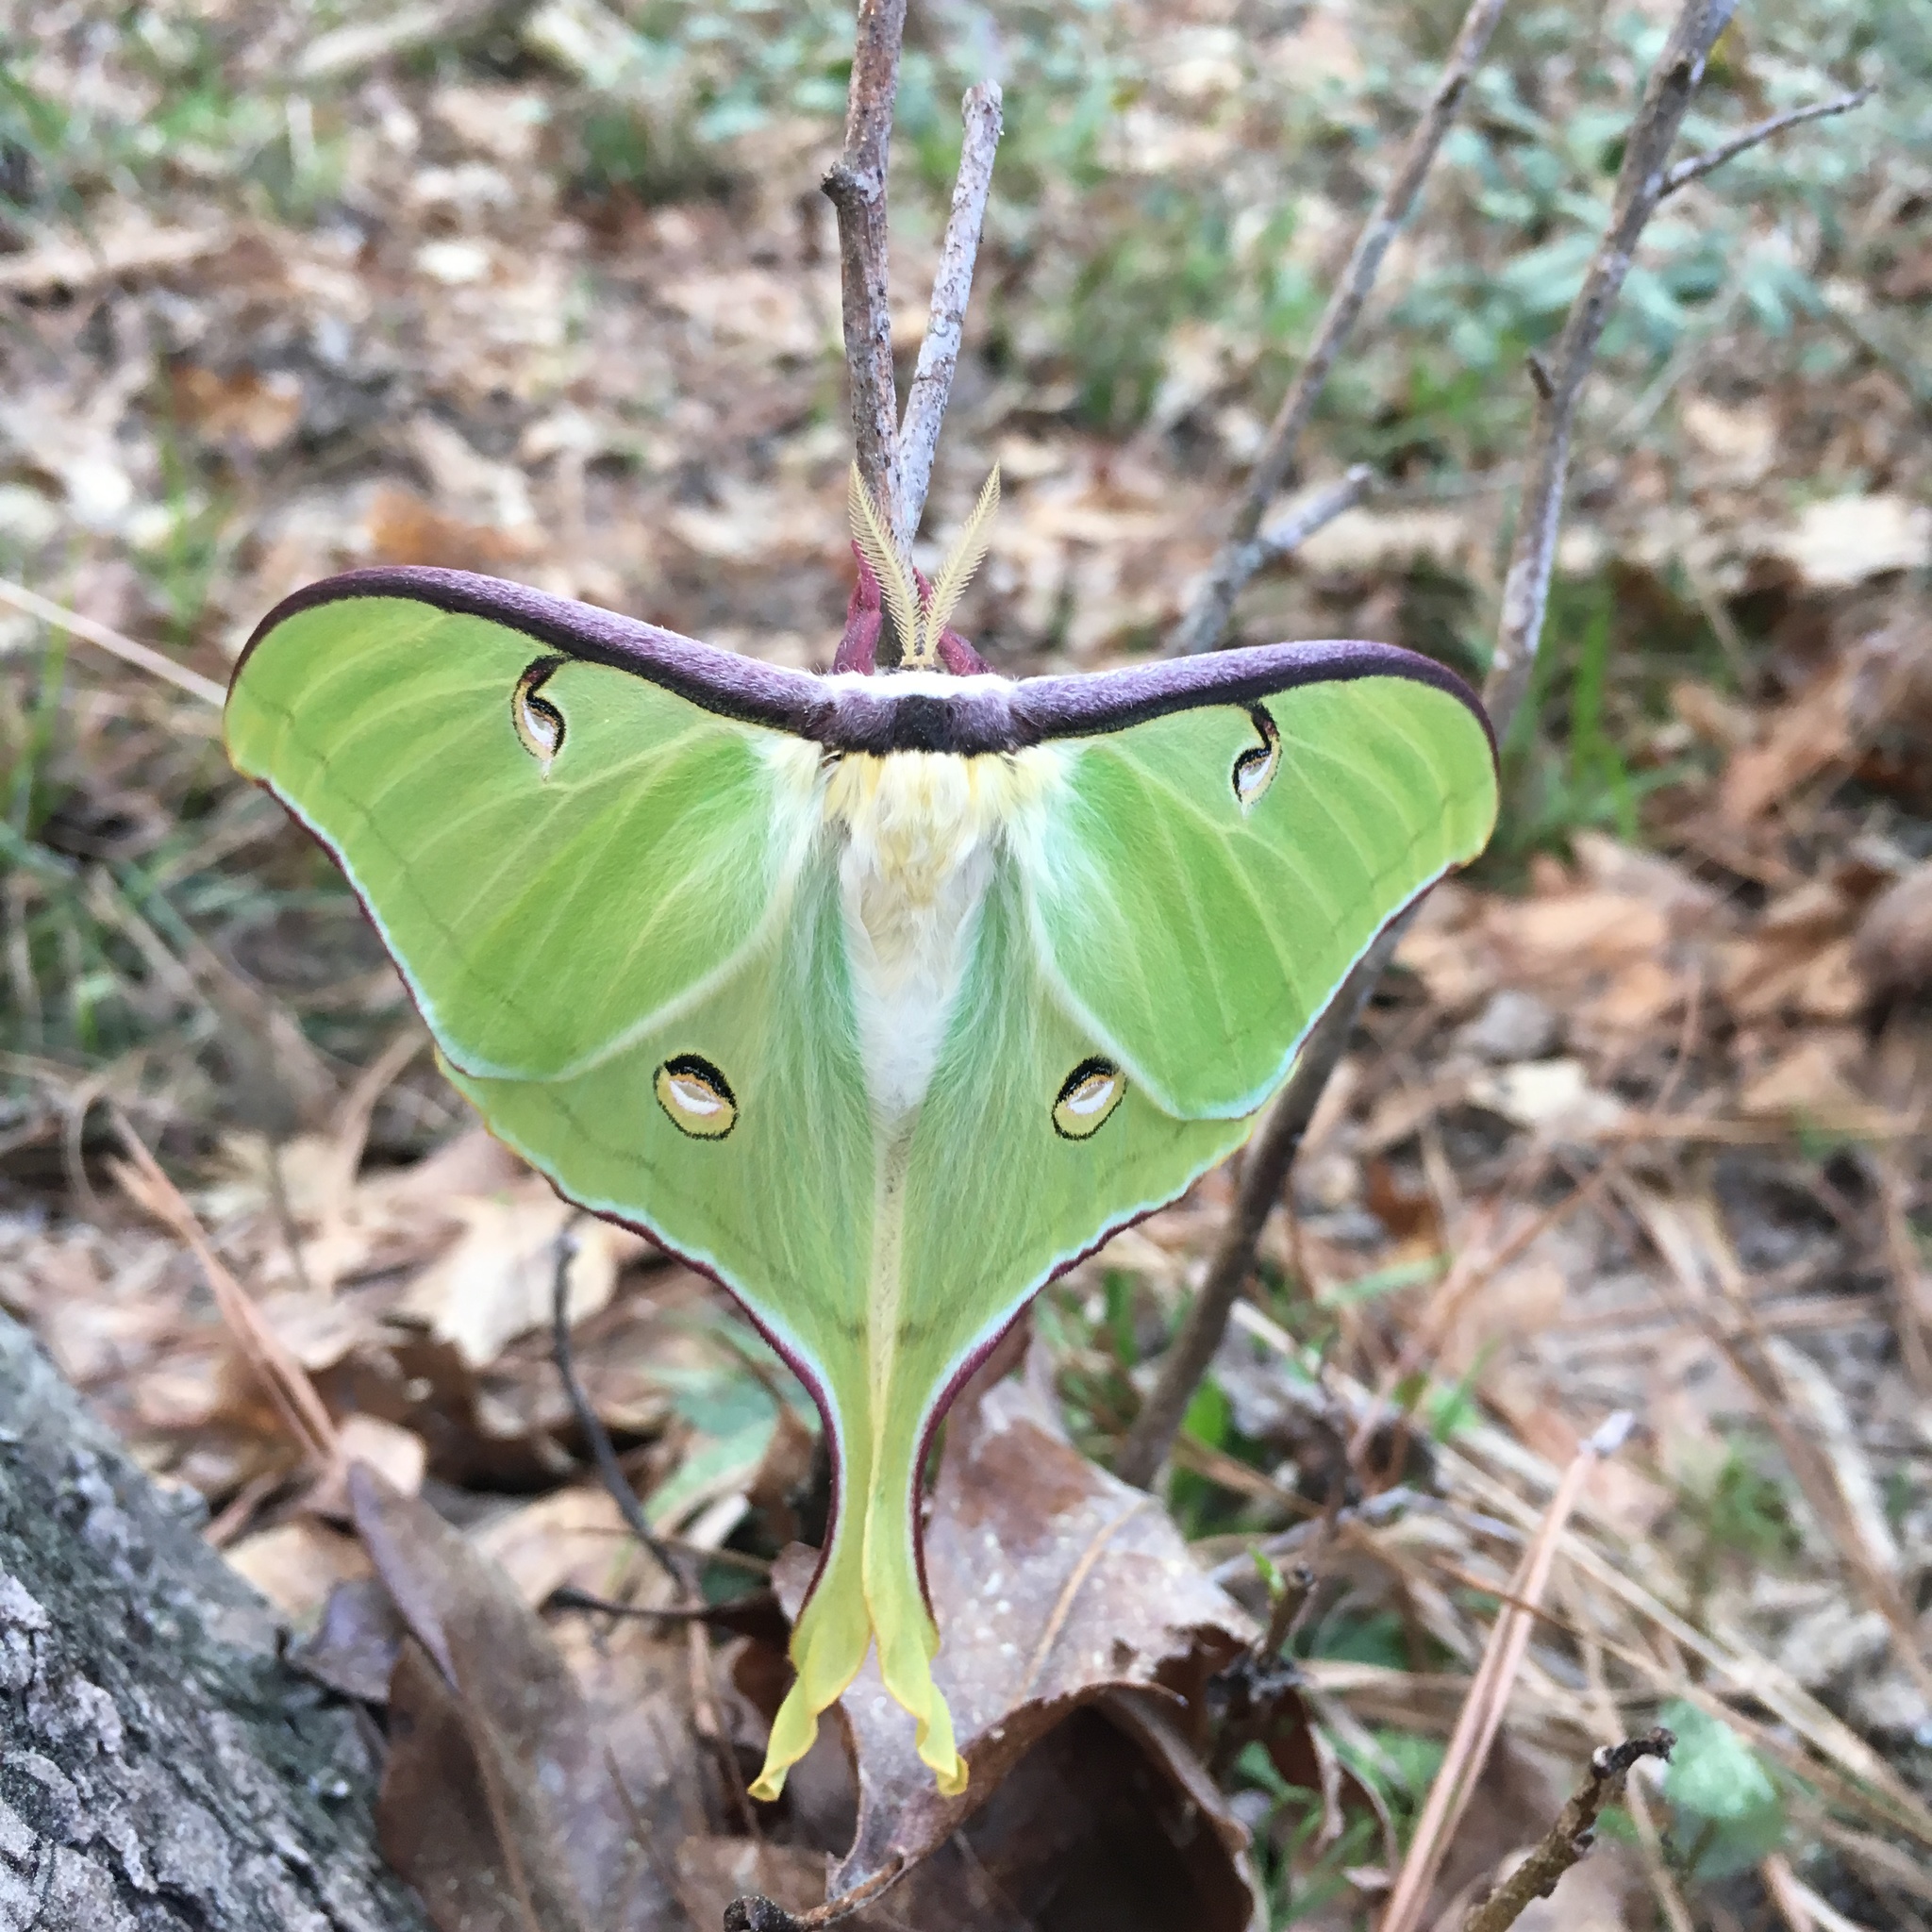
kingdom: Animalia
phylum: Arthropoda
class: Insecta
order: Lepidoptera
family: Saturniidae
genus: Actias
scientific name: Actias luna
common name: Luna moth
